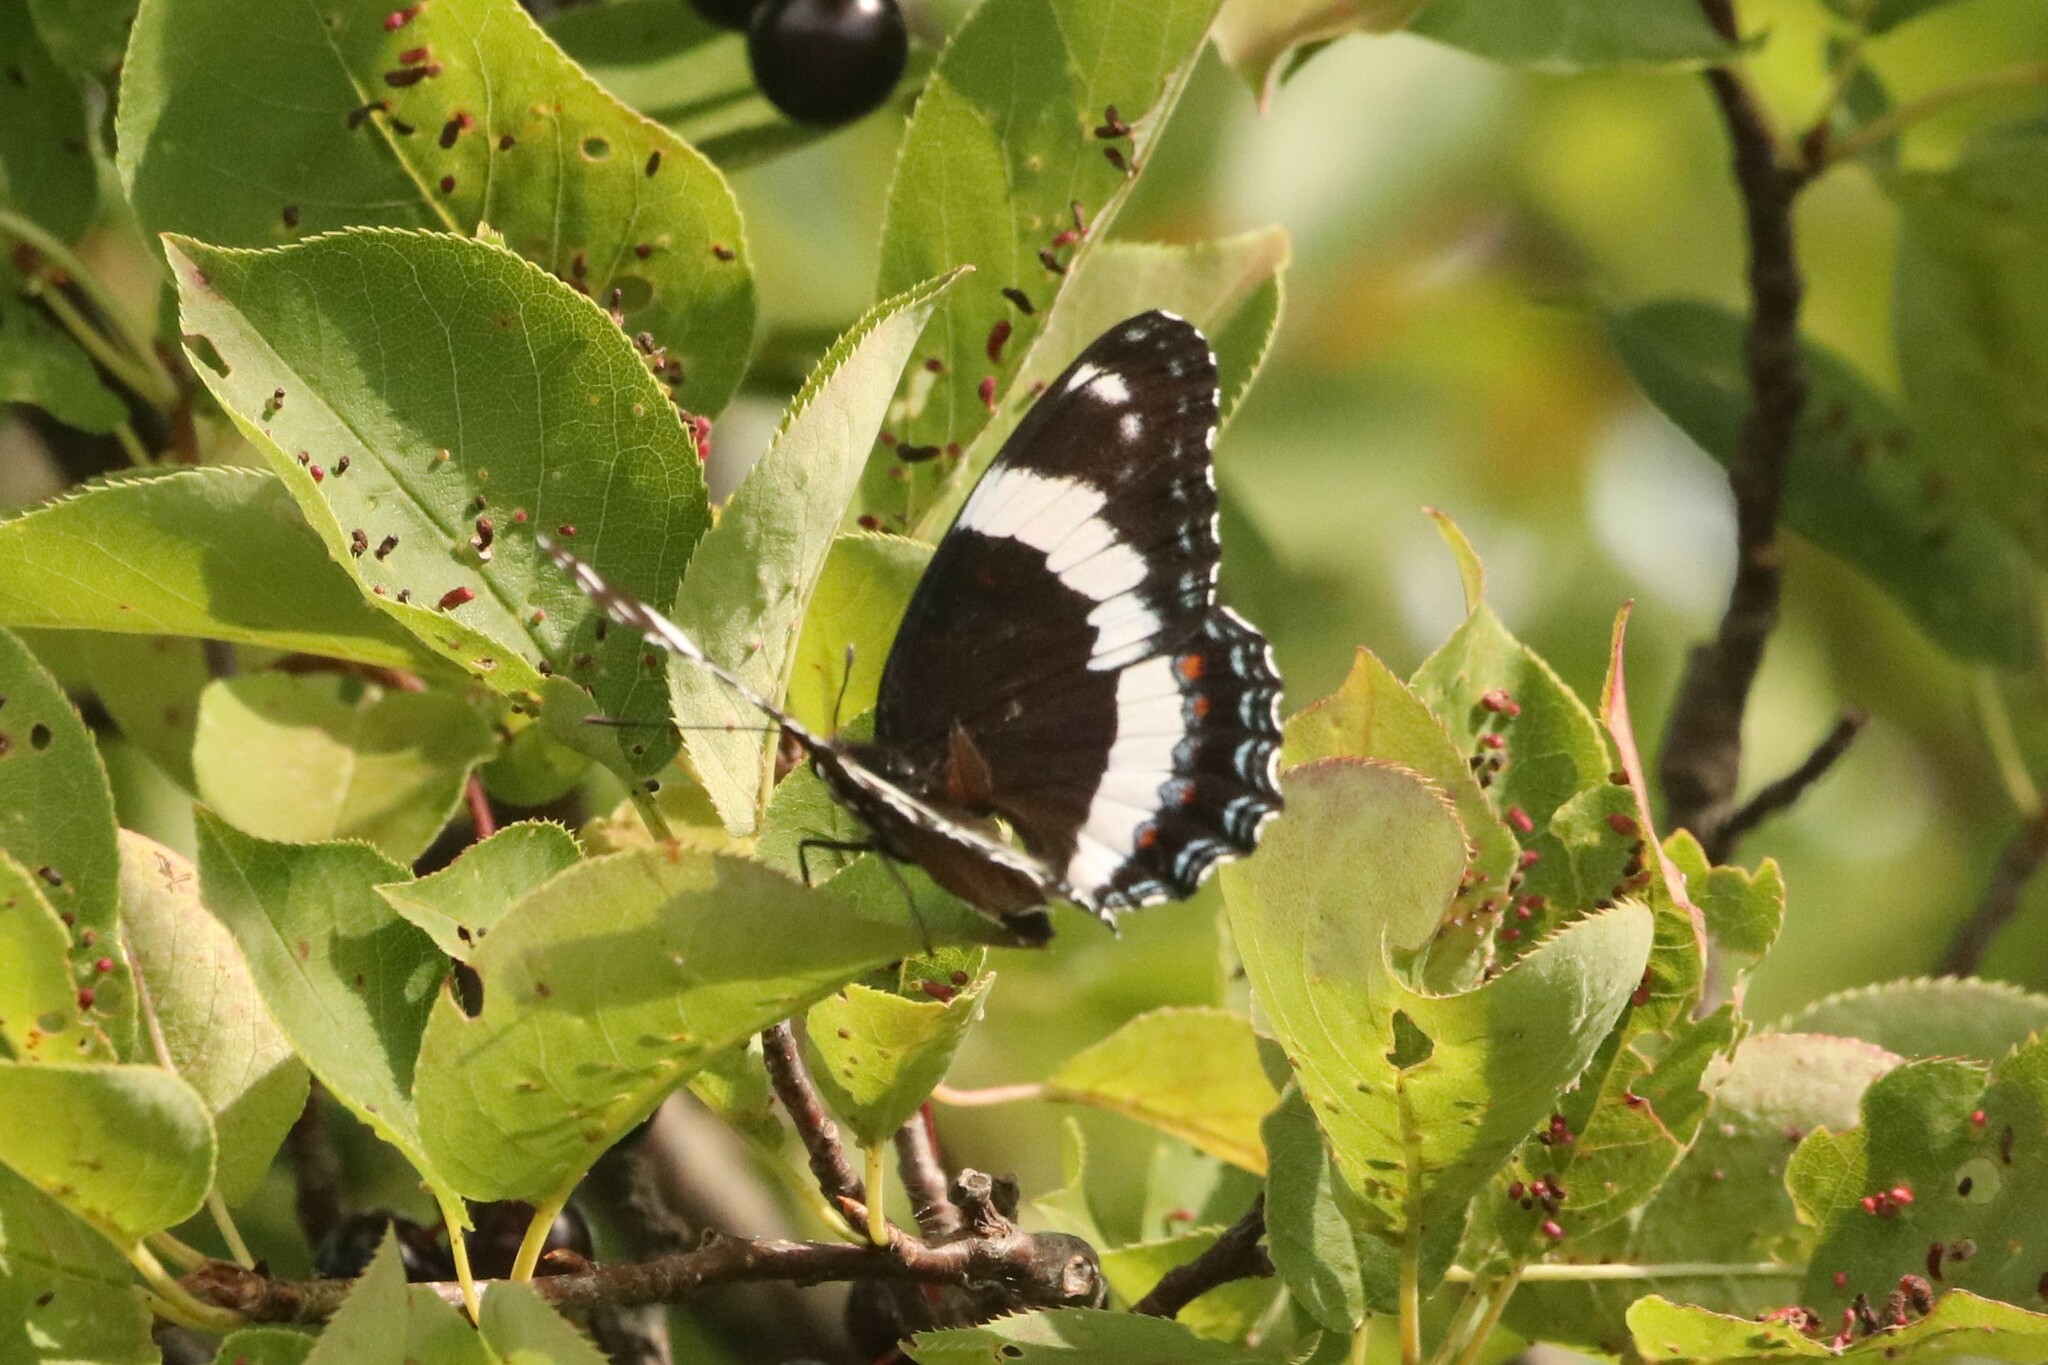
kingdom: Animalia
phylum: Arthropoda
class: Insecta
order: Lepidoptera
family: Nymphalidae
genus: Limenitis
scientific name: Limenitis arthemis
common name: Red-spotted admiral
